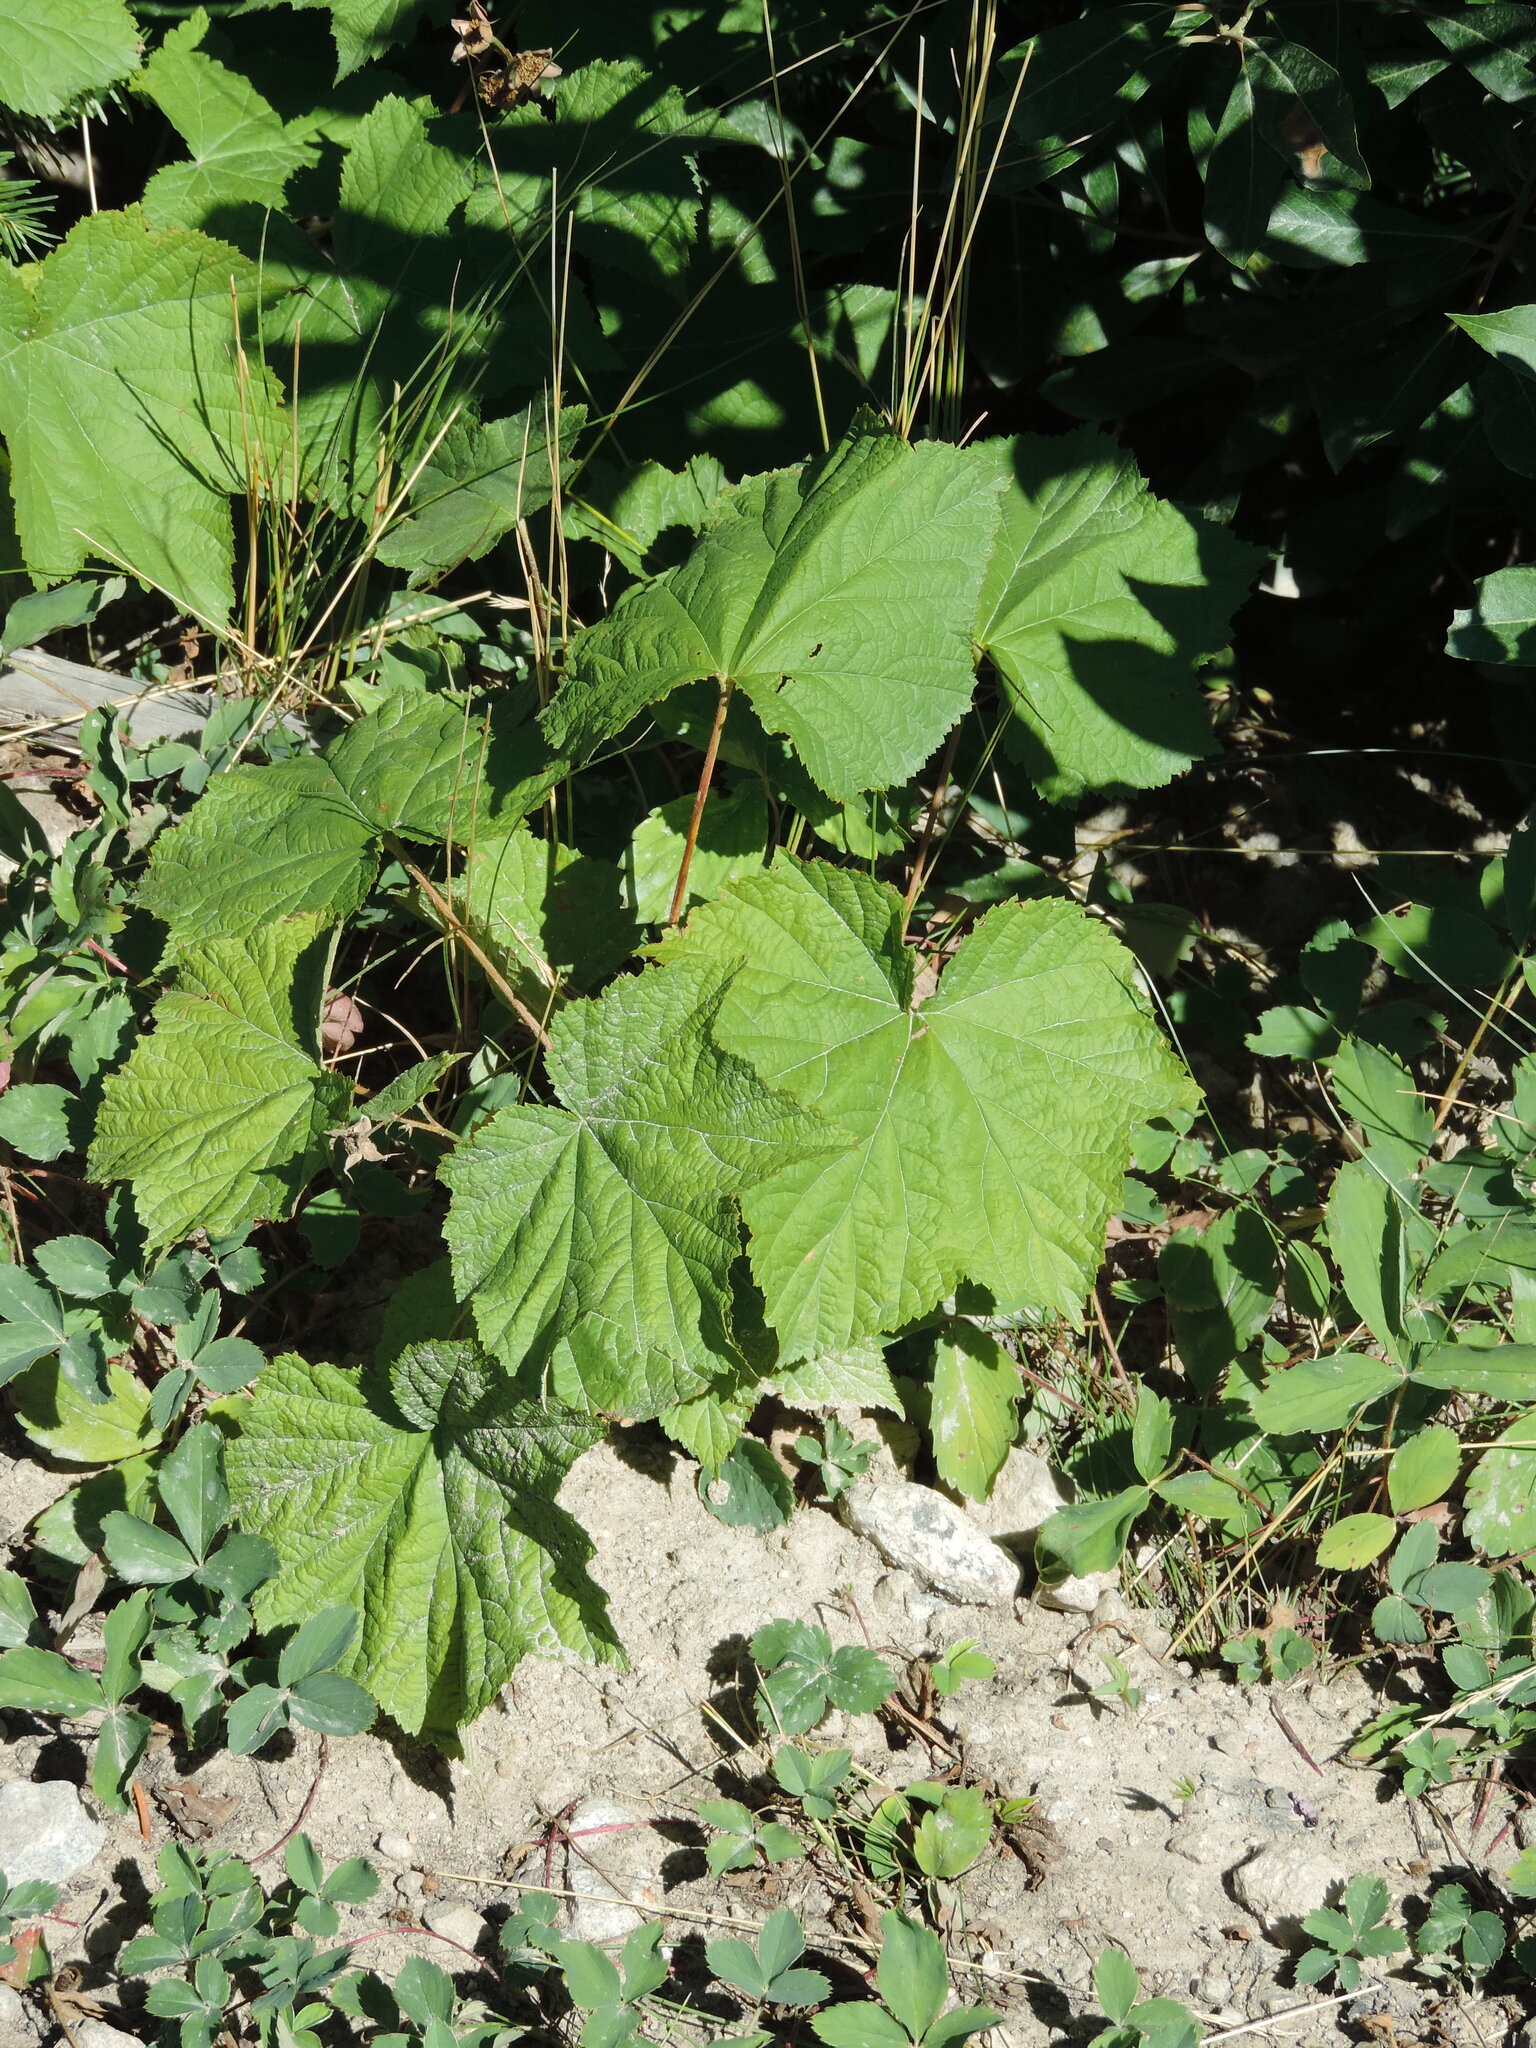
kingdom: Plantae
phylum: Tracheophyta
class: Magnoliopsida
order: Rosales
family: Rosaceae
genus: Rubus
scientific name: Rubus parviflorus
